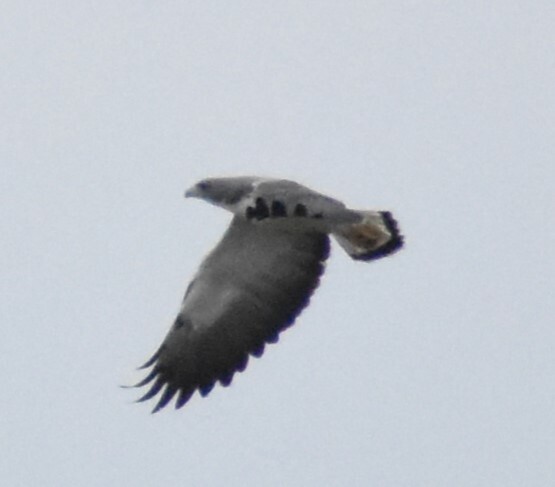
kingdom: Animalia
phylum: Chordata
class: Aves
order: Accipitriformes
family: Accipitridae
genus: Buteo
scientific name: Buteo albicaudatus
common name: White-tailed hawk
